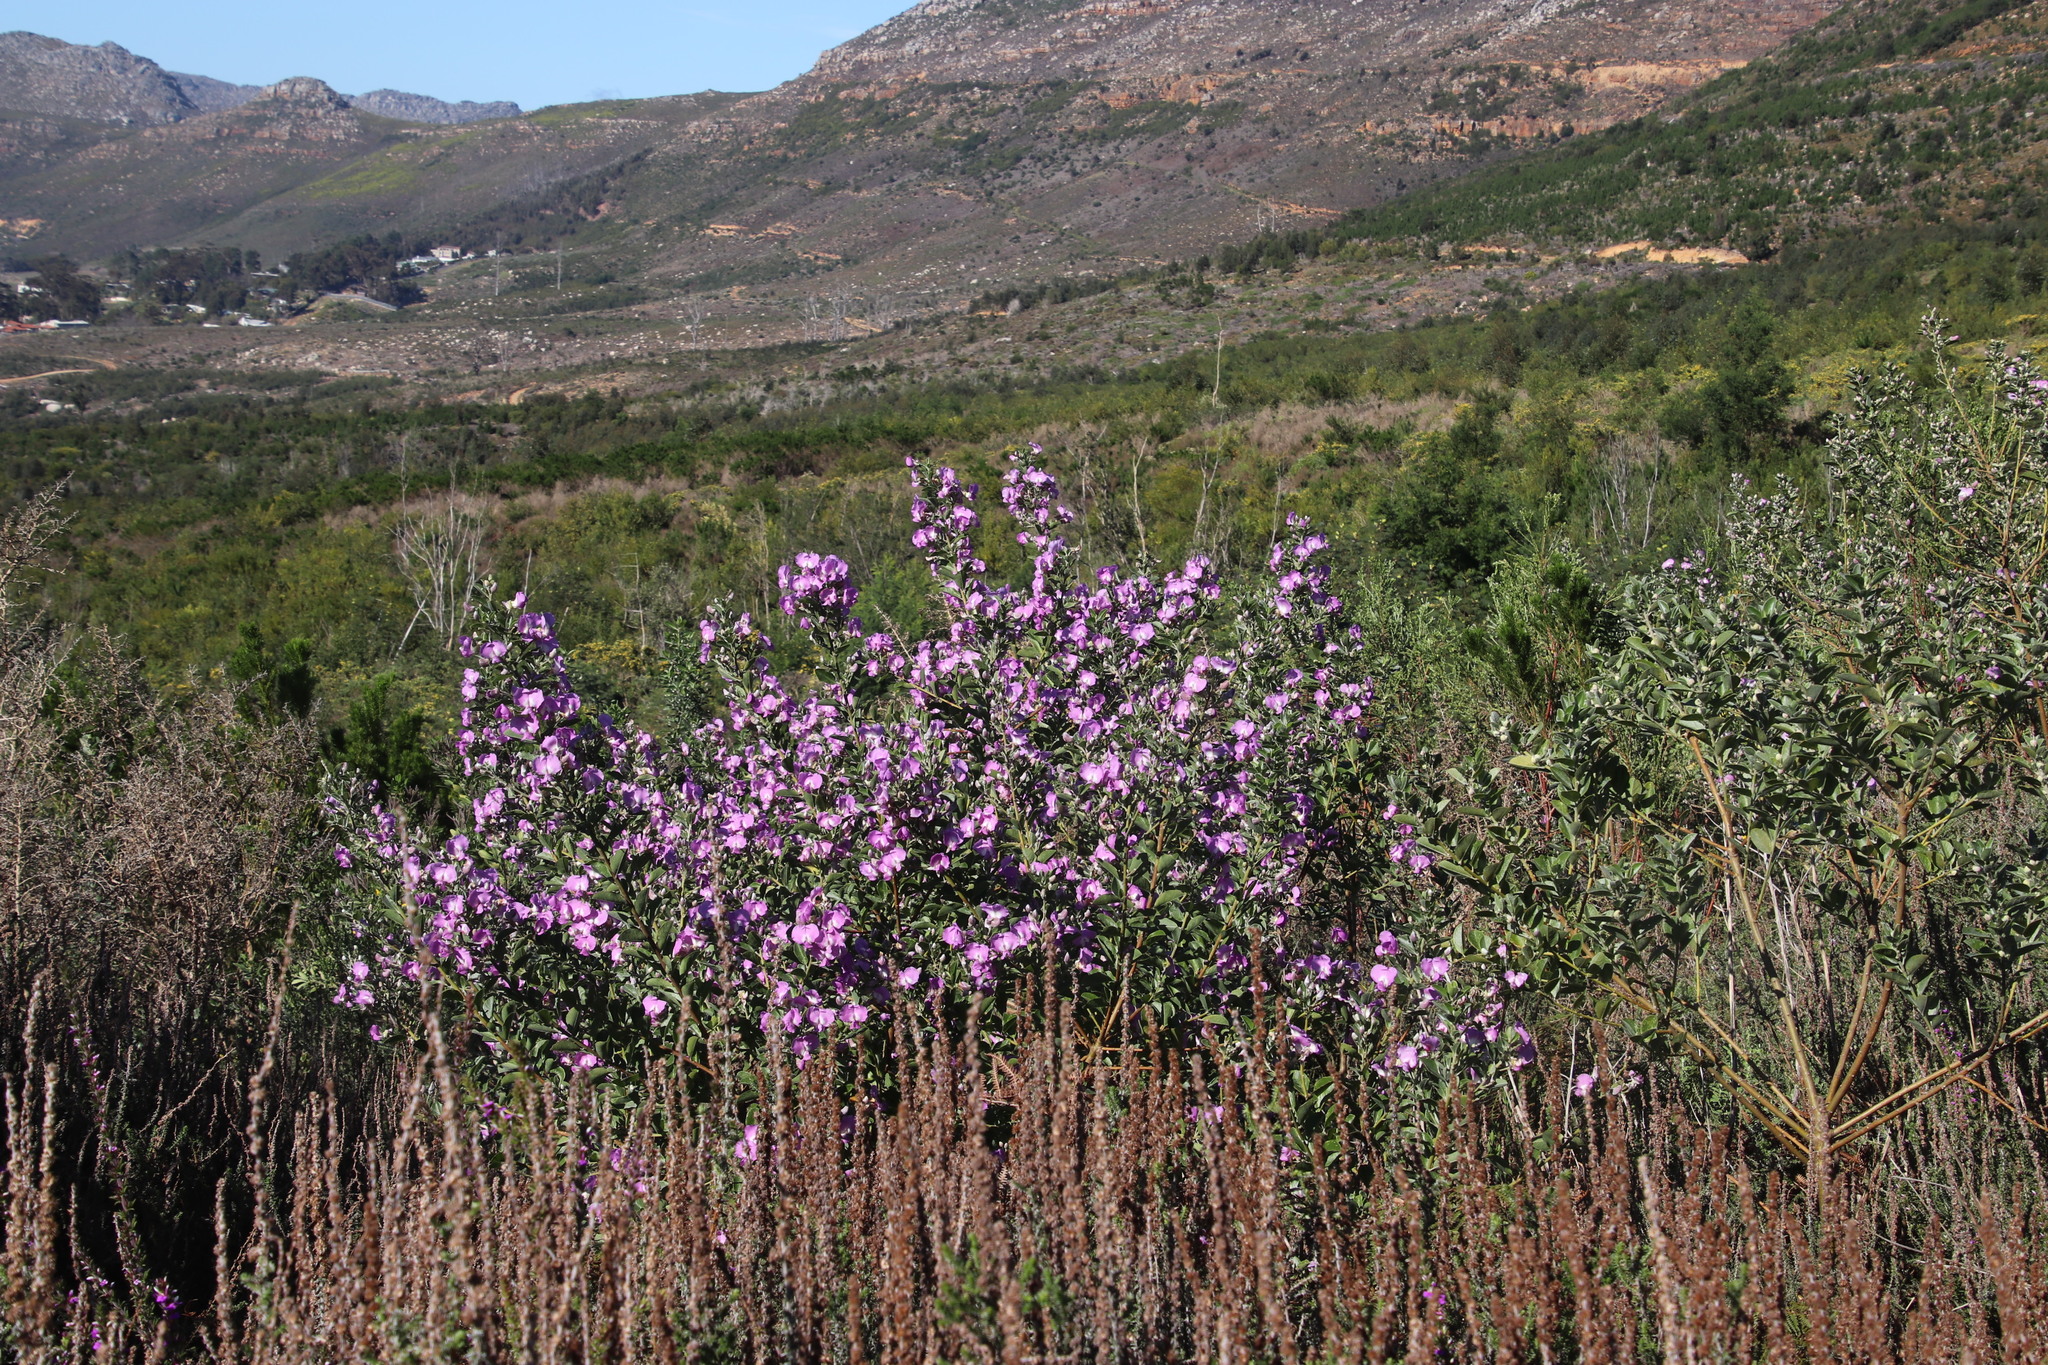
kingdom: Plantae
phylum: Tracheophyta
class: Magnoliopsida
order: Fabales
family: Fabaceae
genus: Podalyria
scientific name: Podalyria calyptrata
